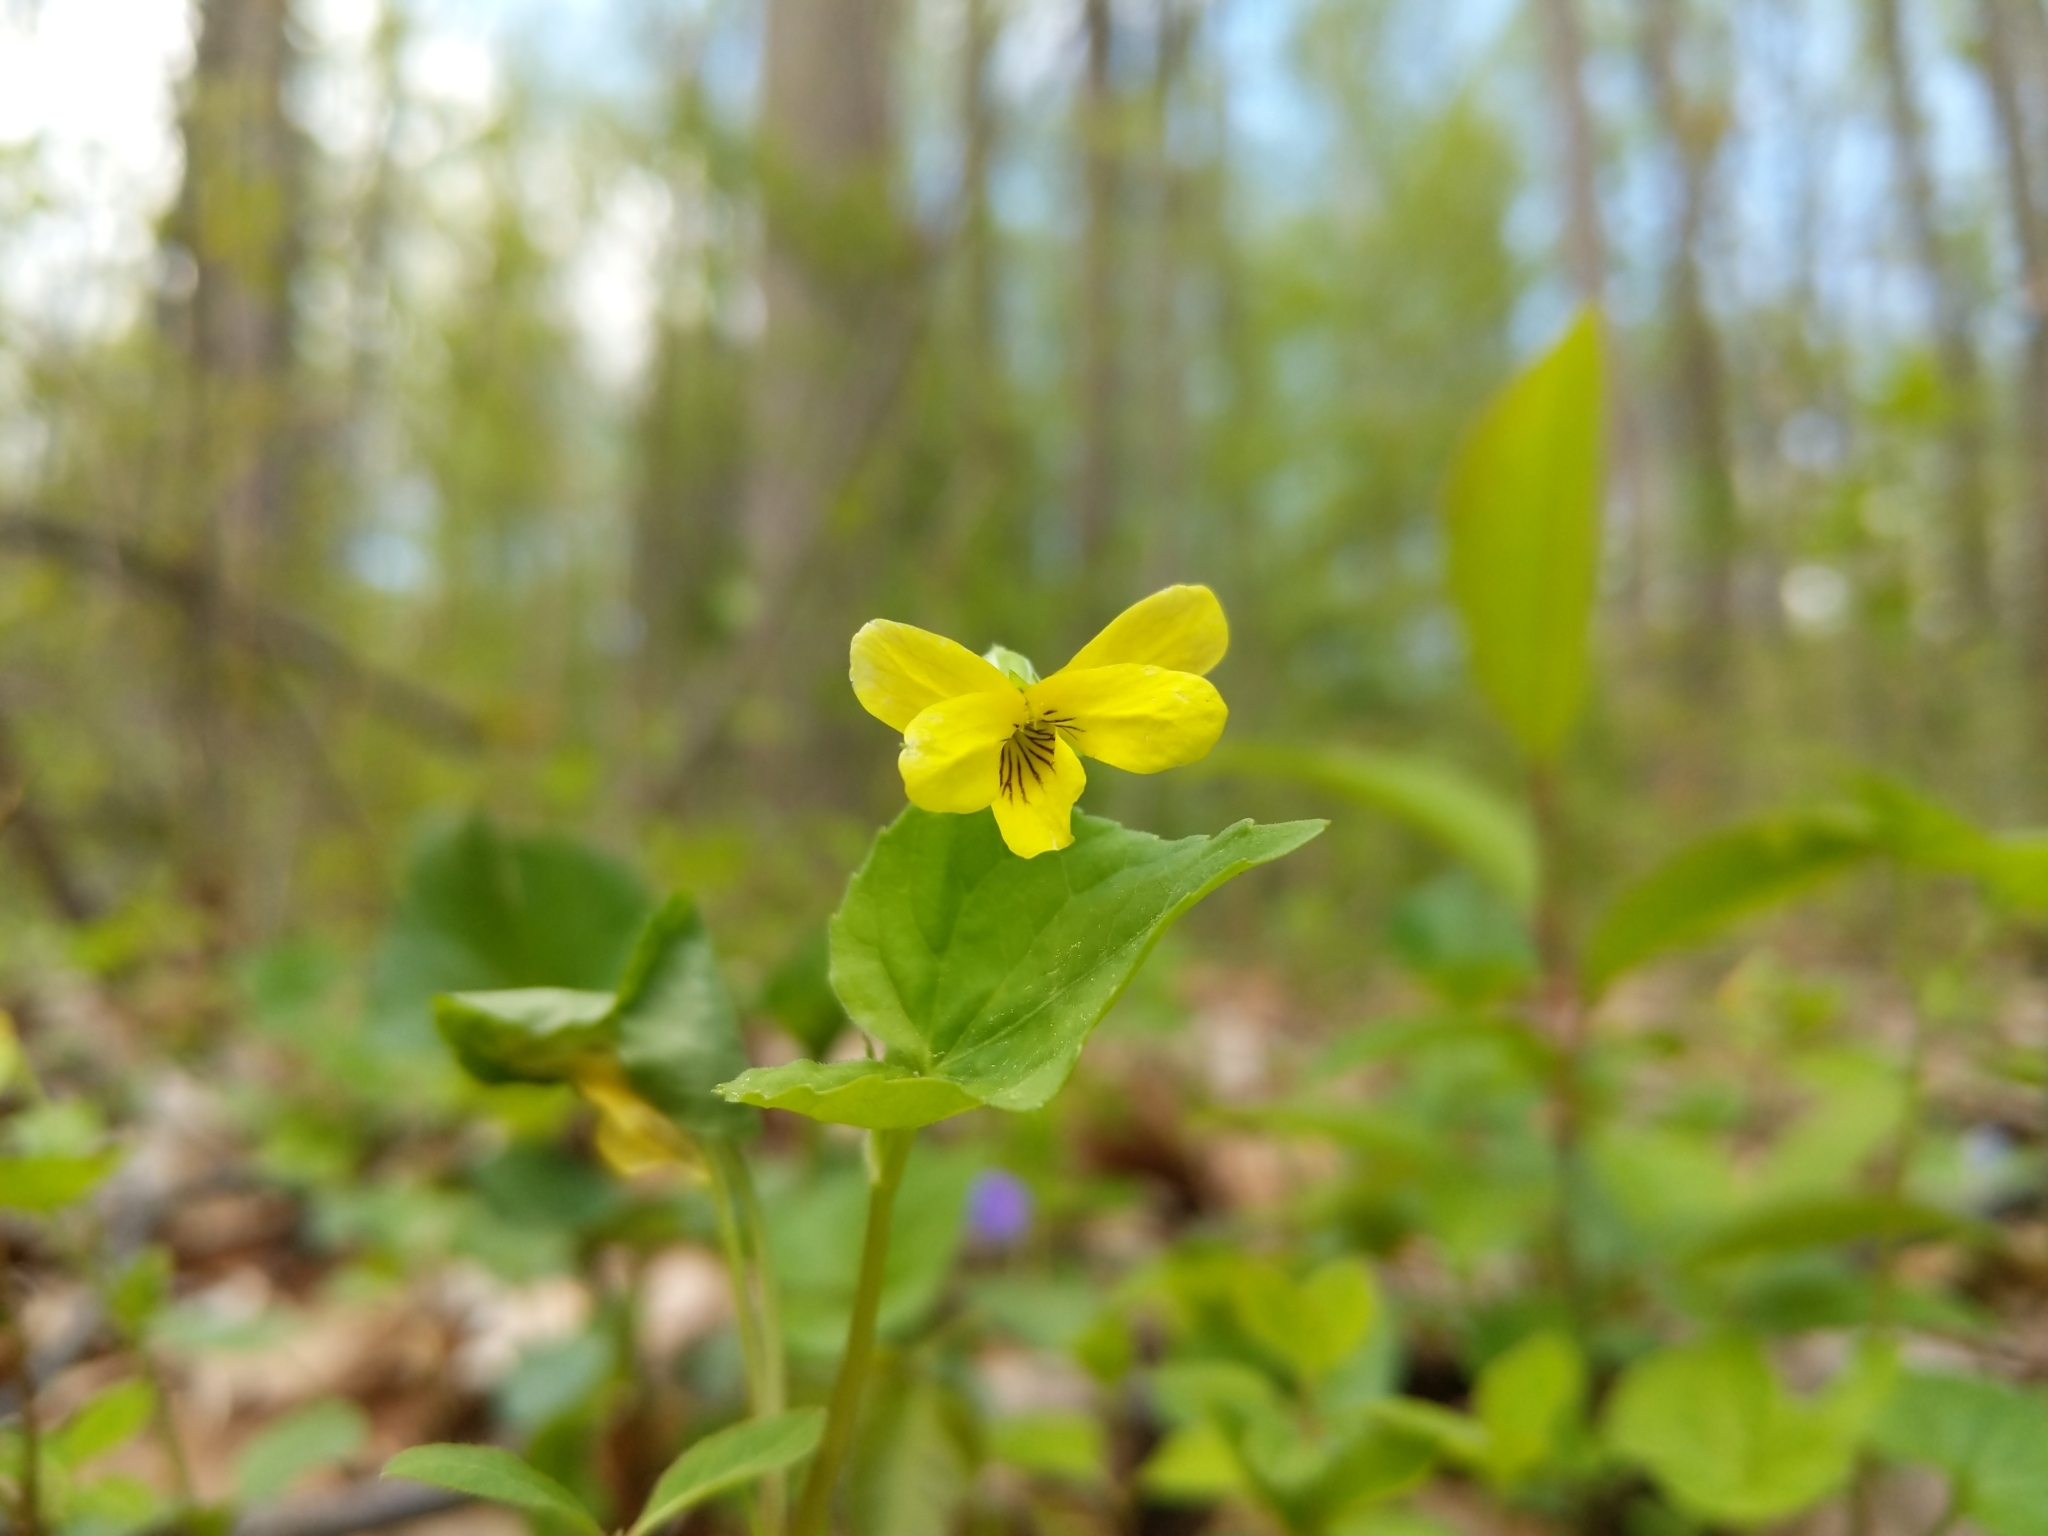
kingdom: Plantae
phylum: Tracheophyta
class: Magnoliopsida
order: Malpighiales
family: Violaceae
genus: Viola
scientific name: Viola eriocarpa
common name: Smooth yellow violet
